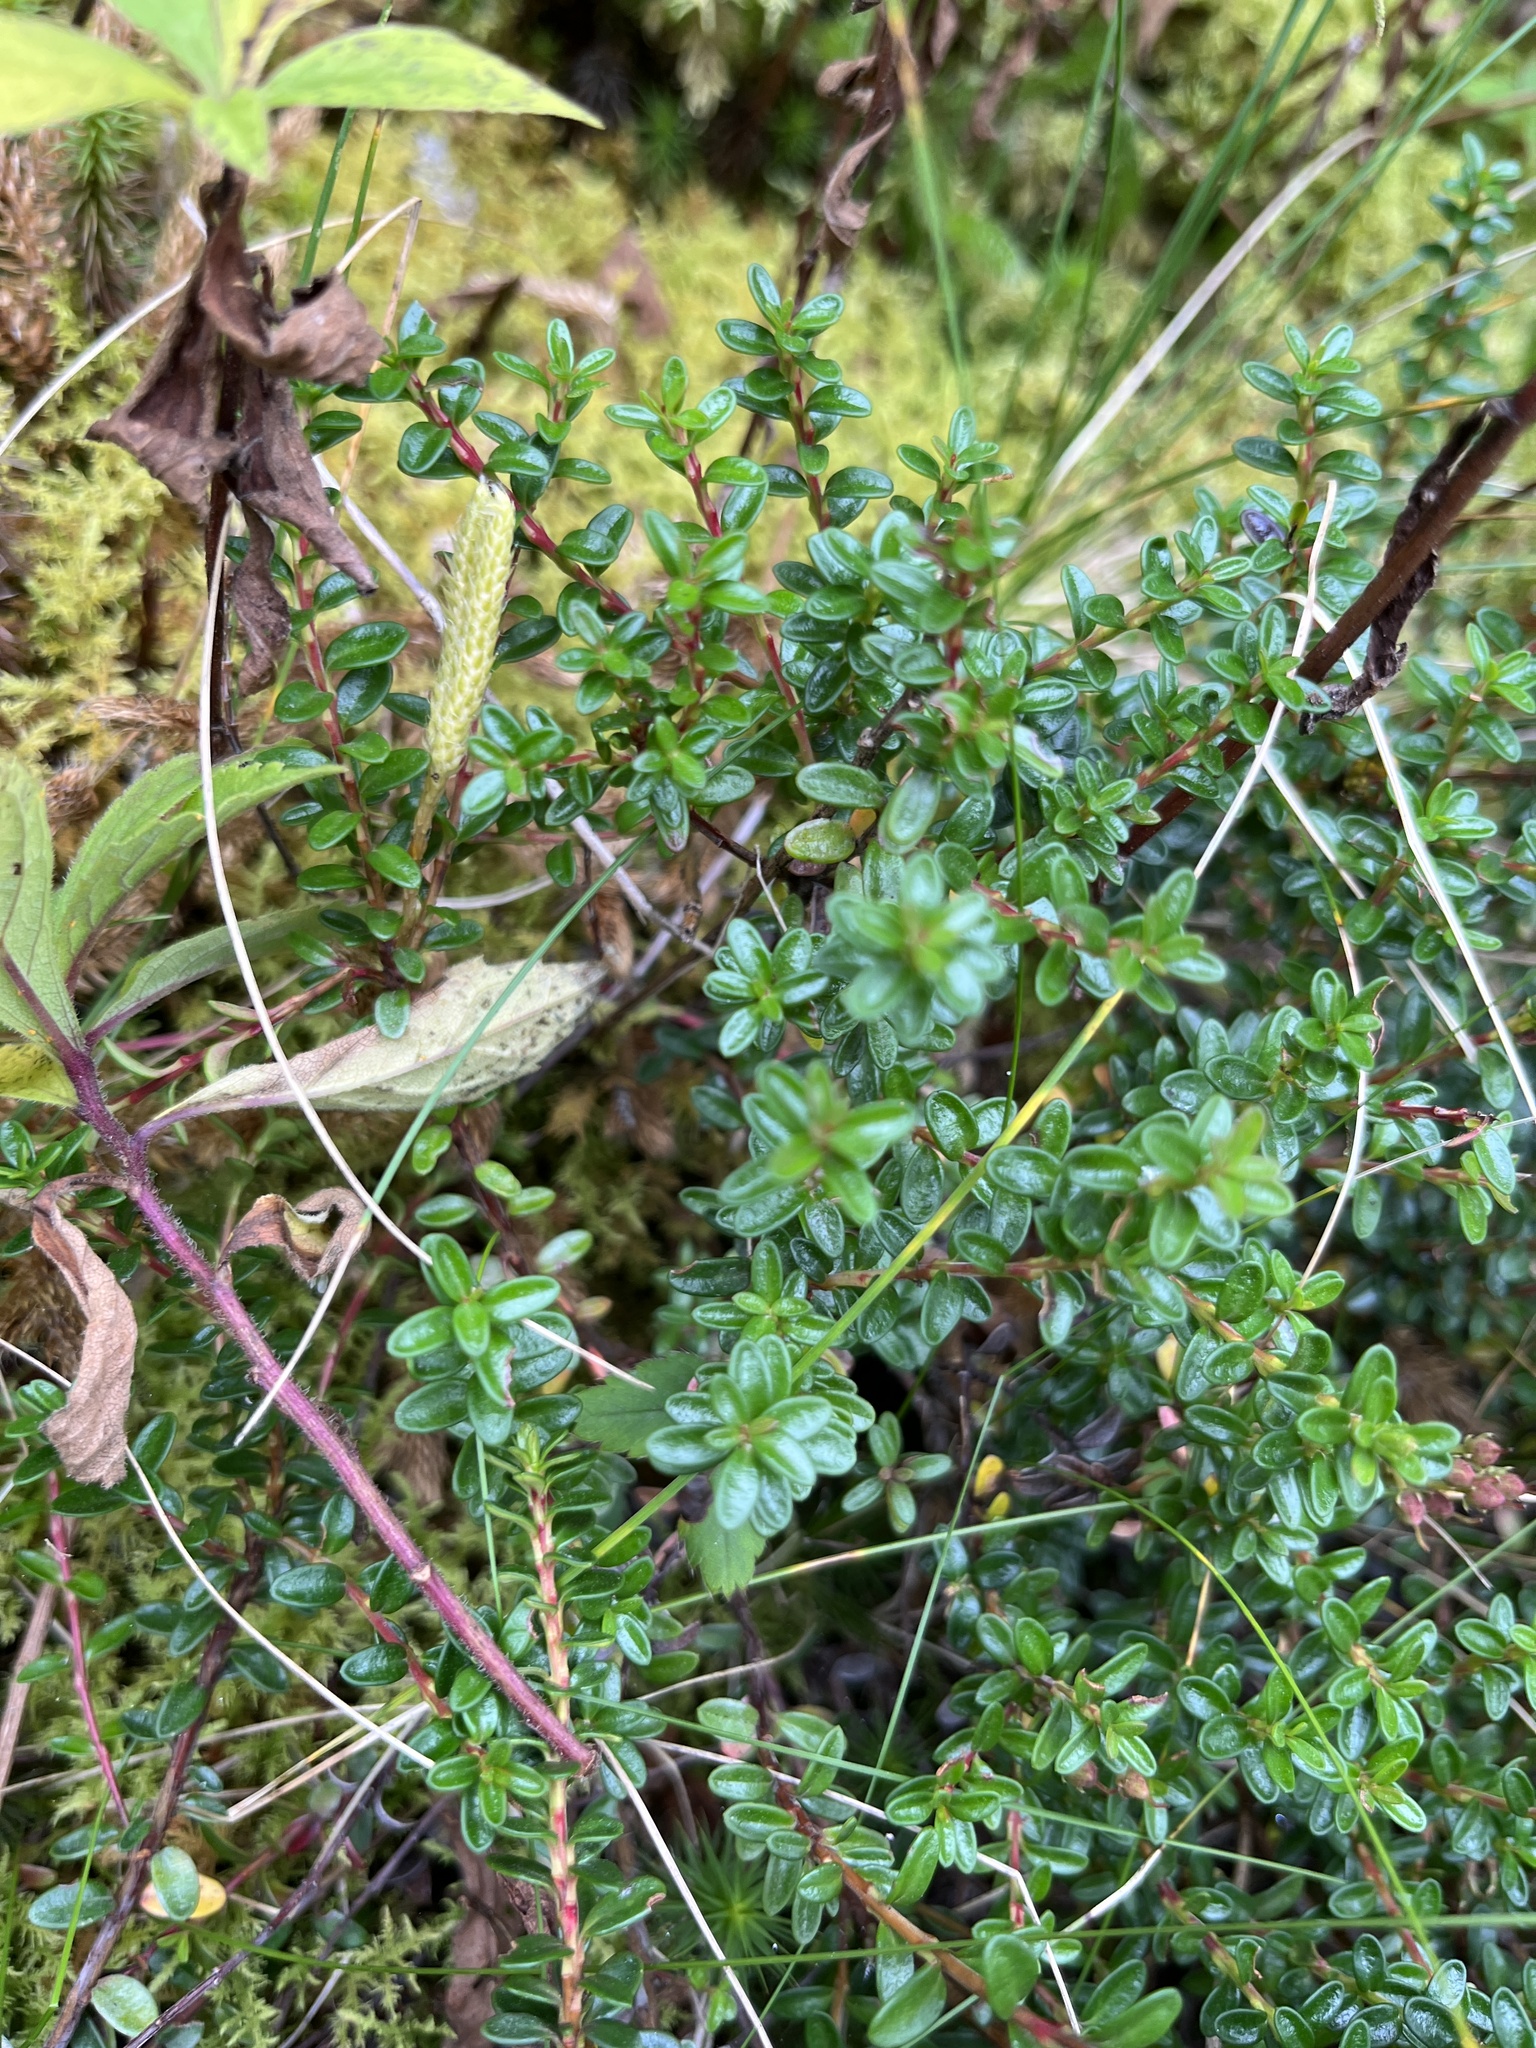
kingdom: Plantae
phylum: Tracheophyta
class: Magnoliopsida
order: Ericales
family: Ericaceae
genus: Kalmia
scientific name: Kalmia buxifolia
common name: Sandmyrtle
